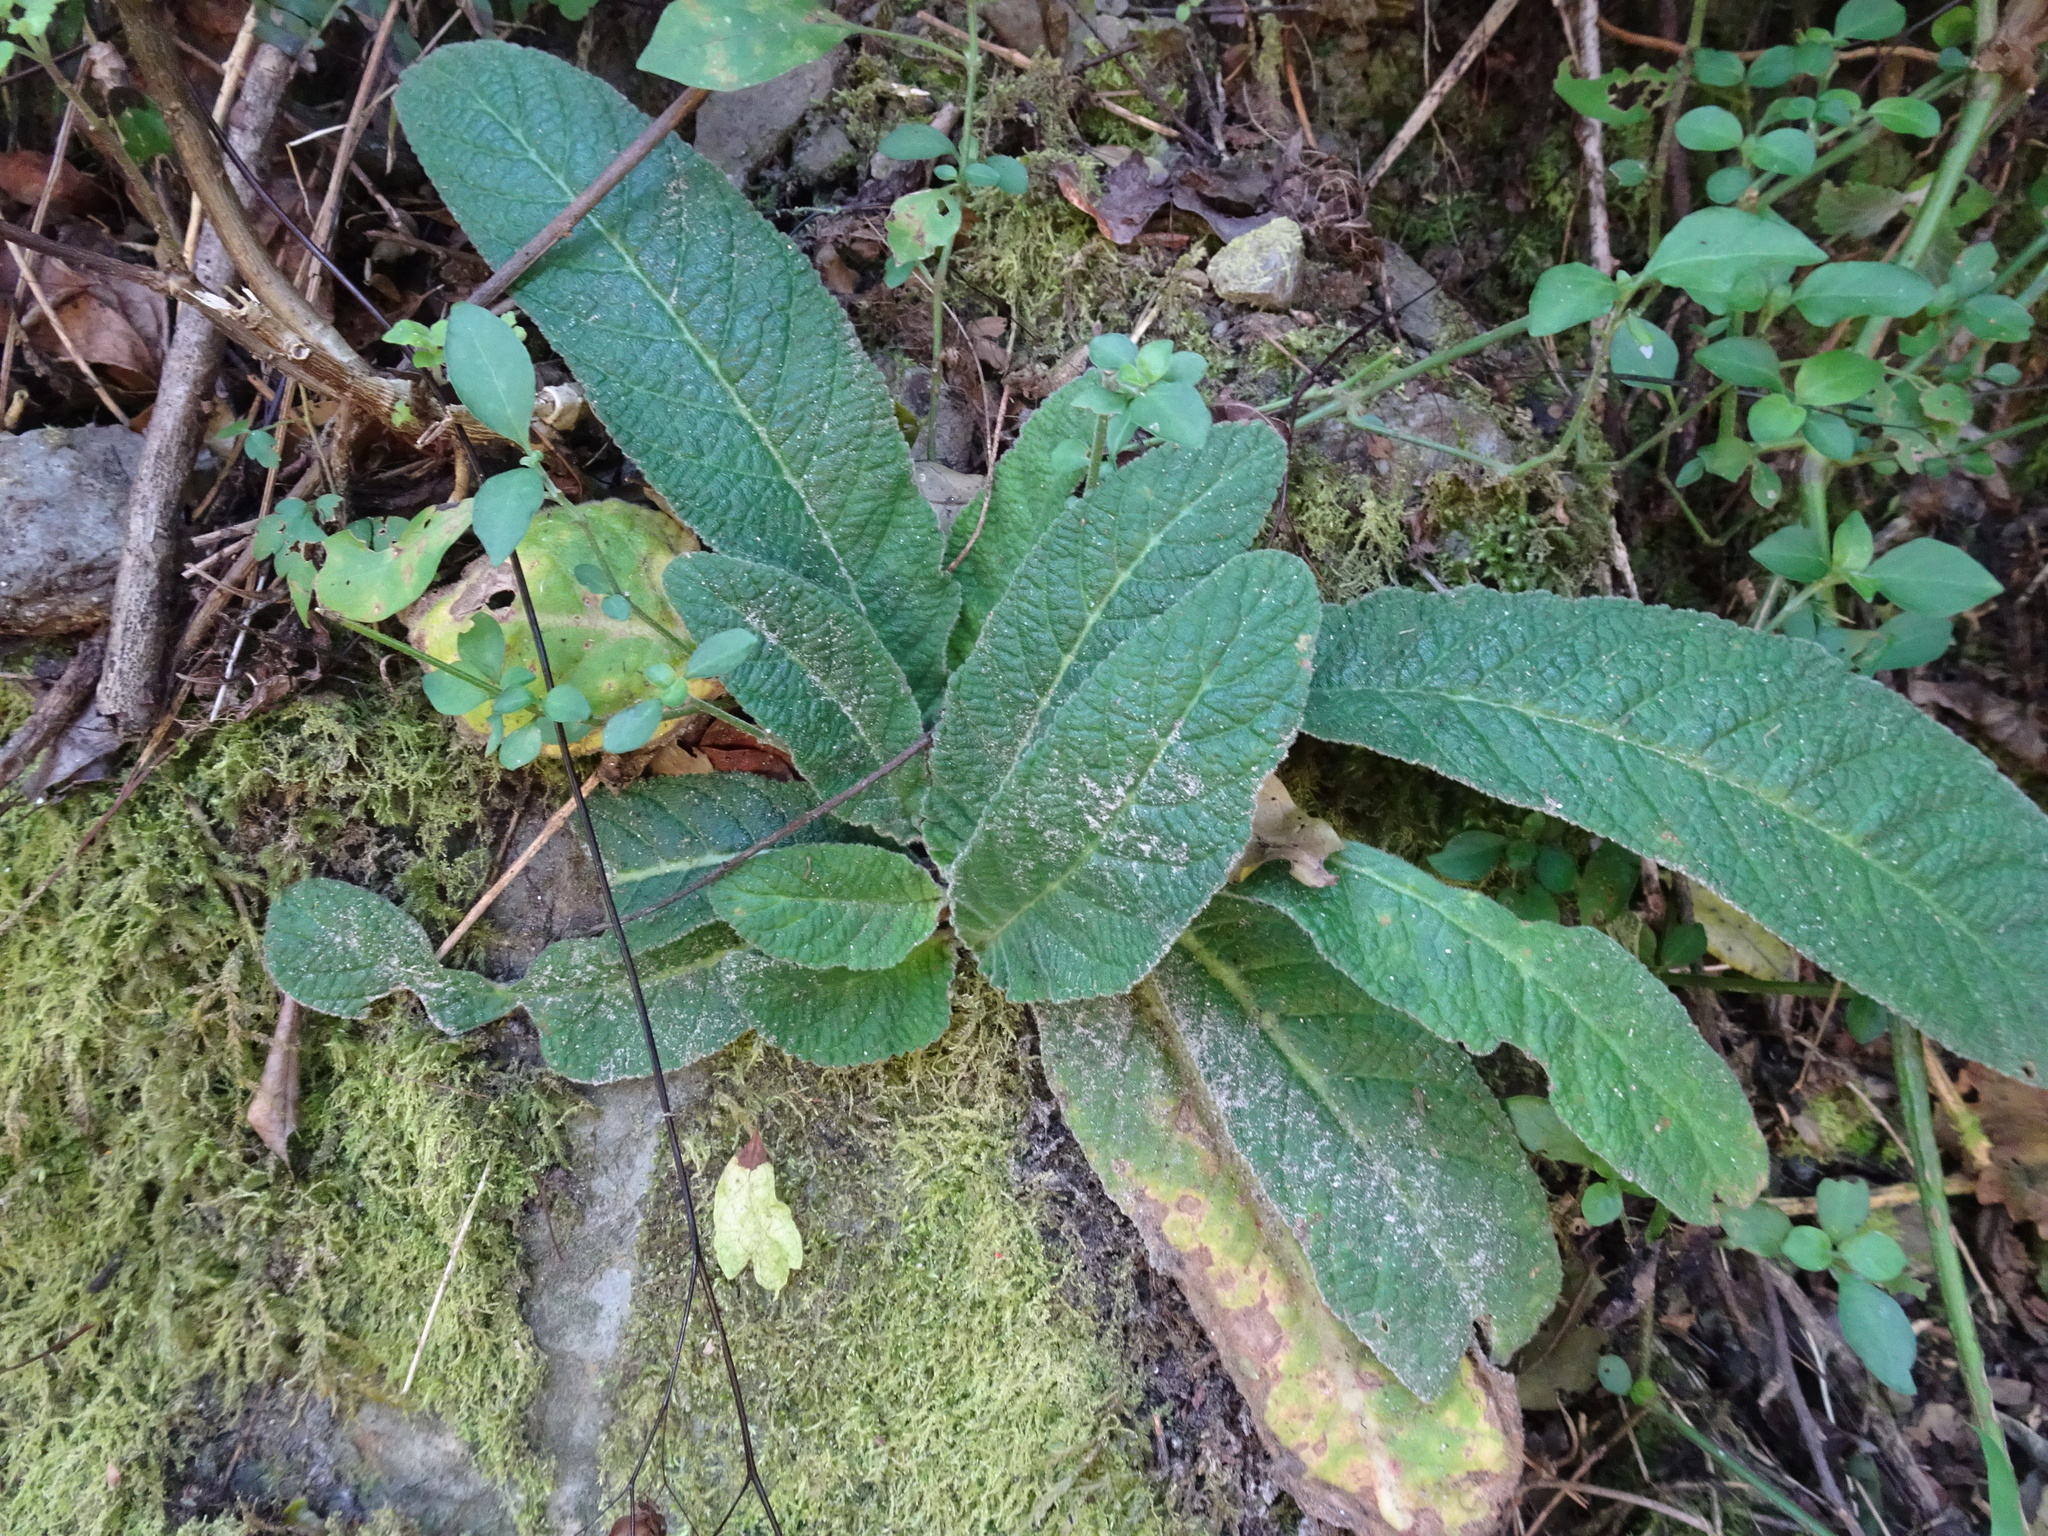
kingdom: Plantae
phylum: Tracheophyta
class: Magnoliopsida
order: Lamiales
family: Gesneriaceae
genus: Streptocarpus
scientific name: Streptocarpus rexii
